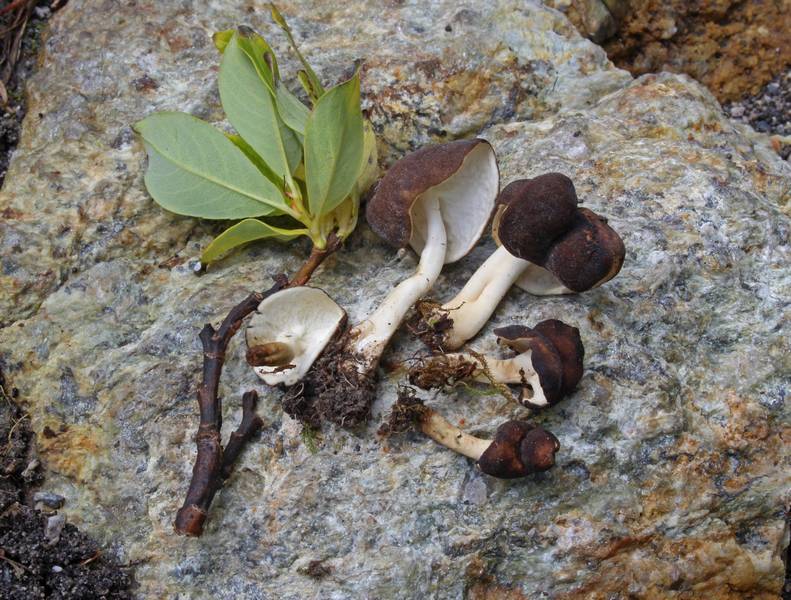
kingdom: Fungi
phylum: Ascomycota
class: Pezizomycetes
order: Pezizales
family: Helvellaceae
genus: Helvella
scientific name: Helvella capucina
